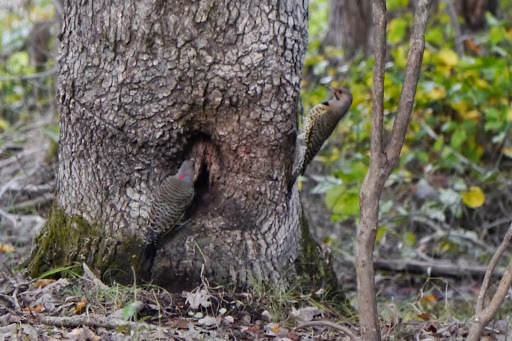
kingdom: Animalia
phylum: Chordata
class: Aves
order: Piciformes
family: Picidae
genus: Colaptes
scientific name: Colaptes auratus
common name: Northern flicker
